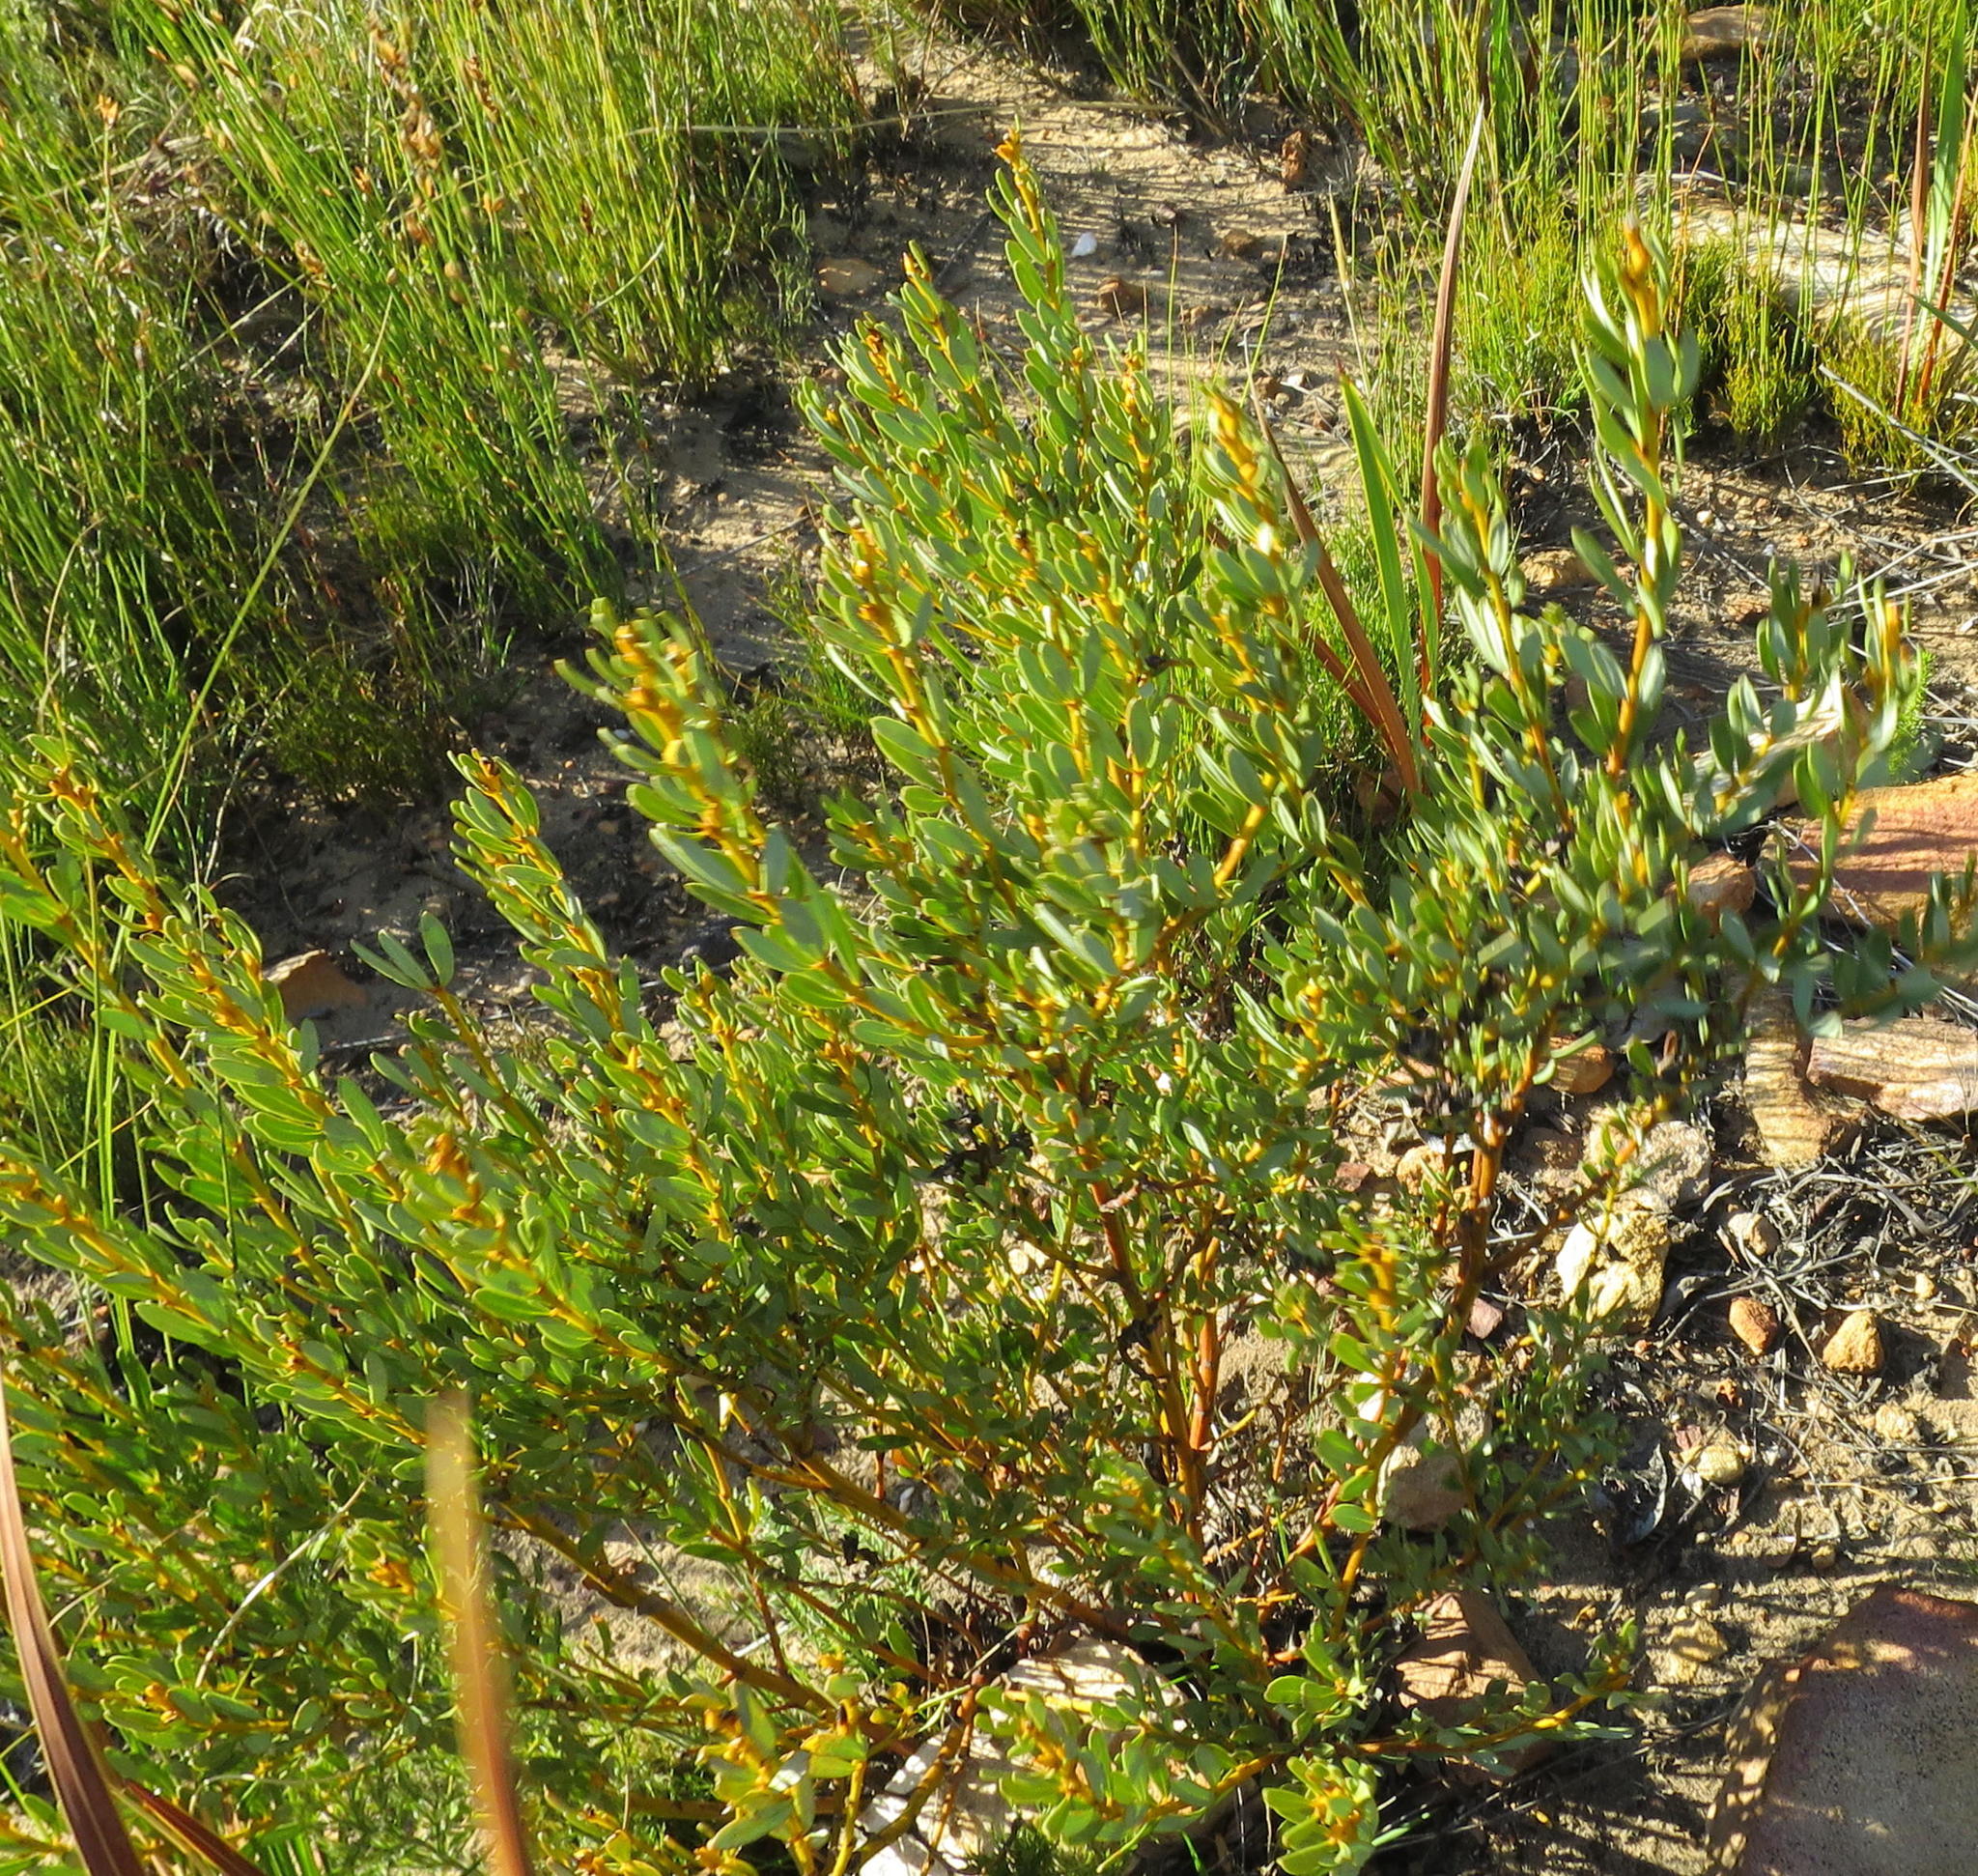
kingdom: Plantae
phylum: Tracheophyta
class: Magnoliopsida
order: Fabales
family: Fabaceae
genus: Cyclopia
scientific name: Cyclopia intermedia
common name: Mountain tea
